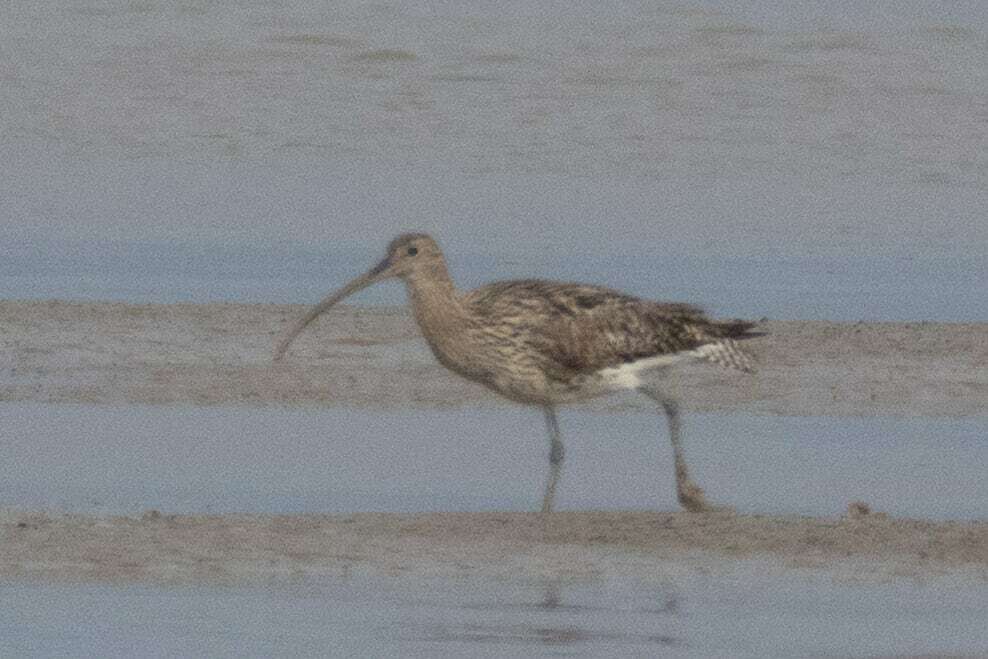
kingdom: Animalia
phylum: Chordata
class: Aves
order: Charadriiformes
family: Scolopacidae
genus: Numenius
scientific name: Numenius arquata
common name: Eurasian curlew
